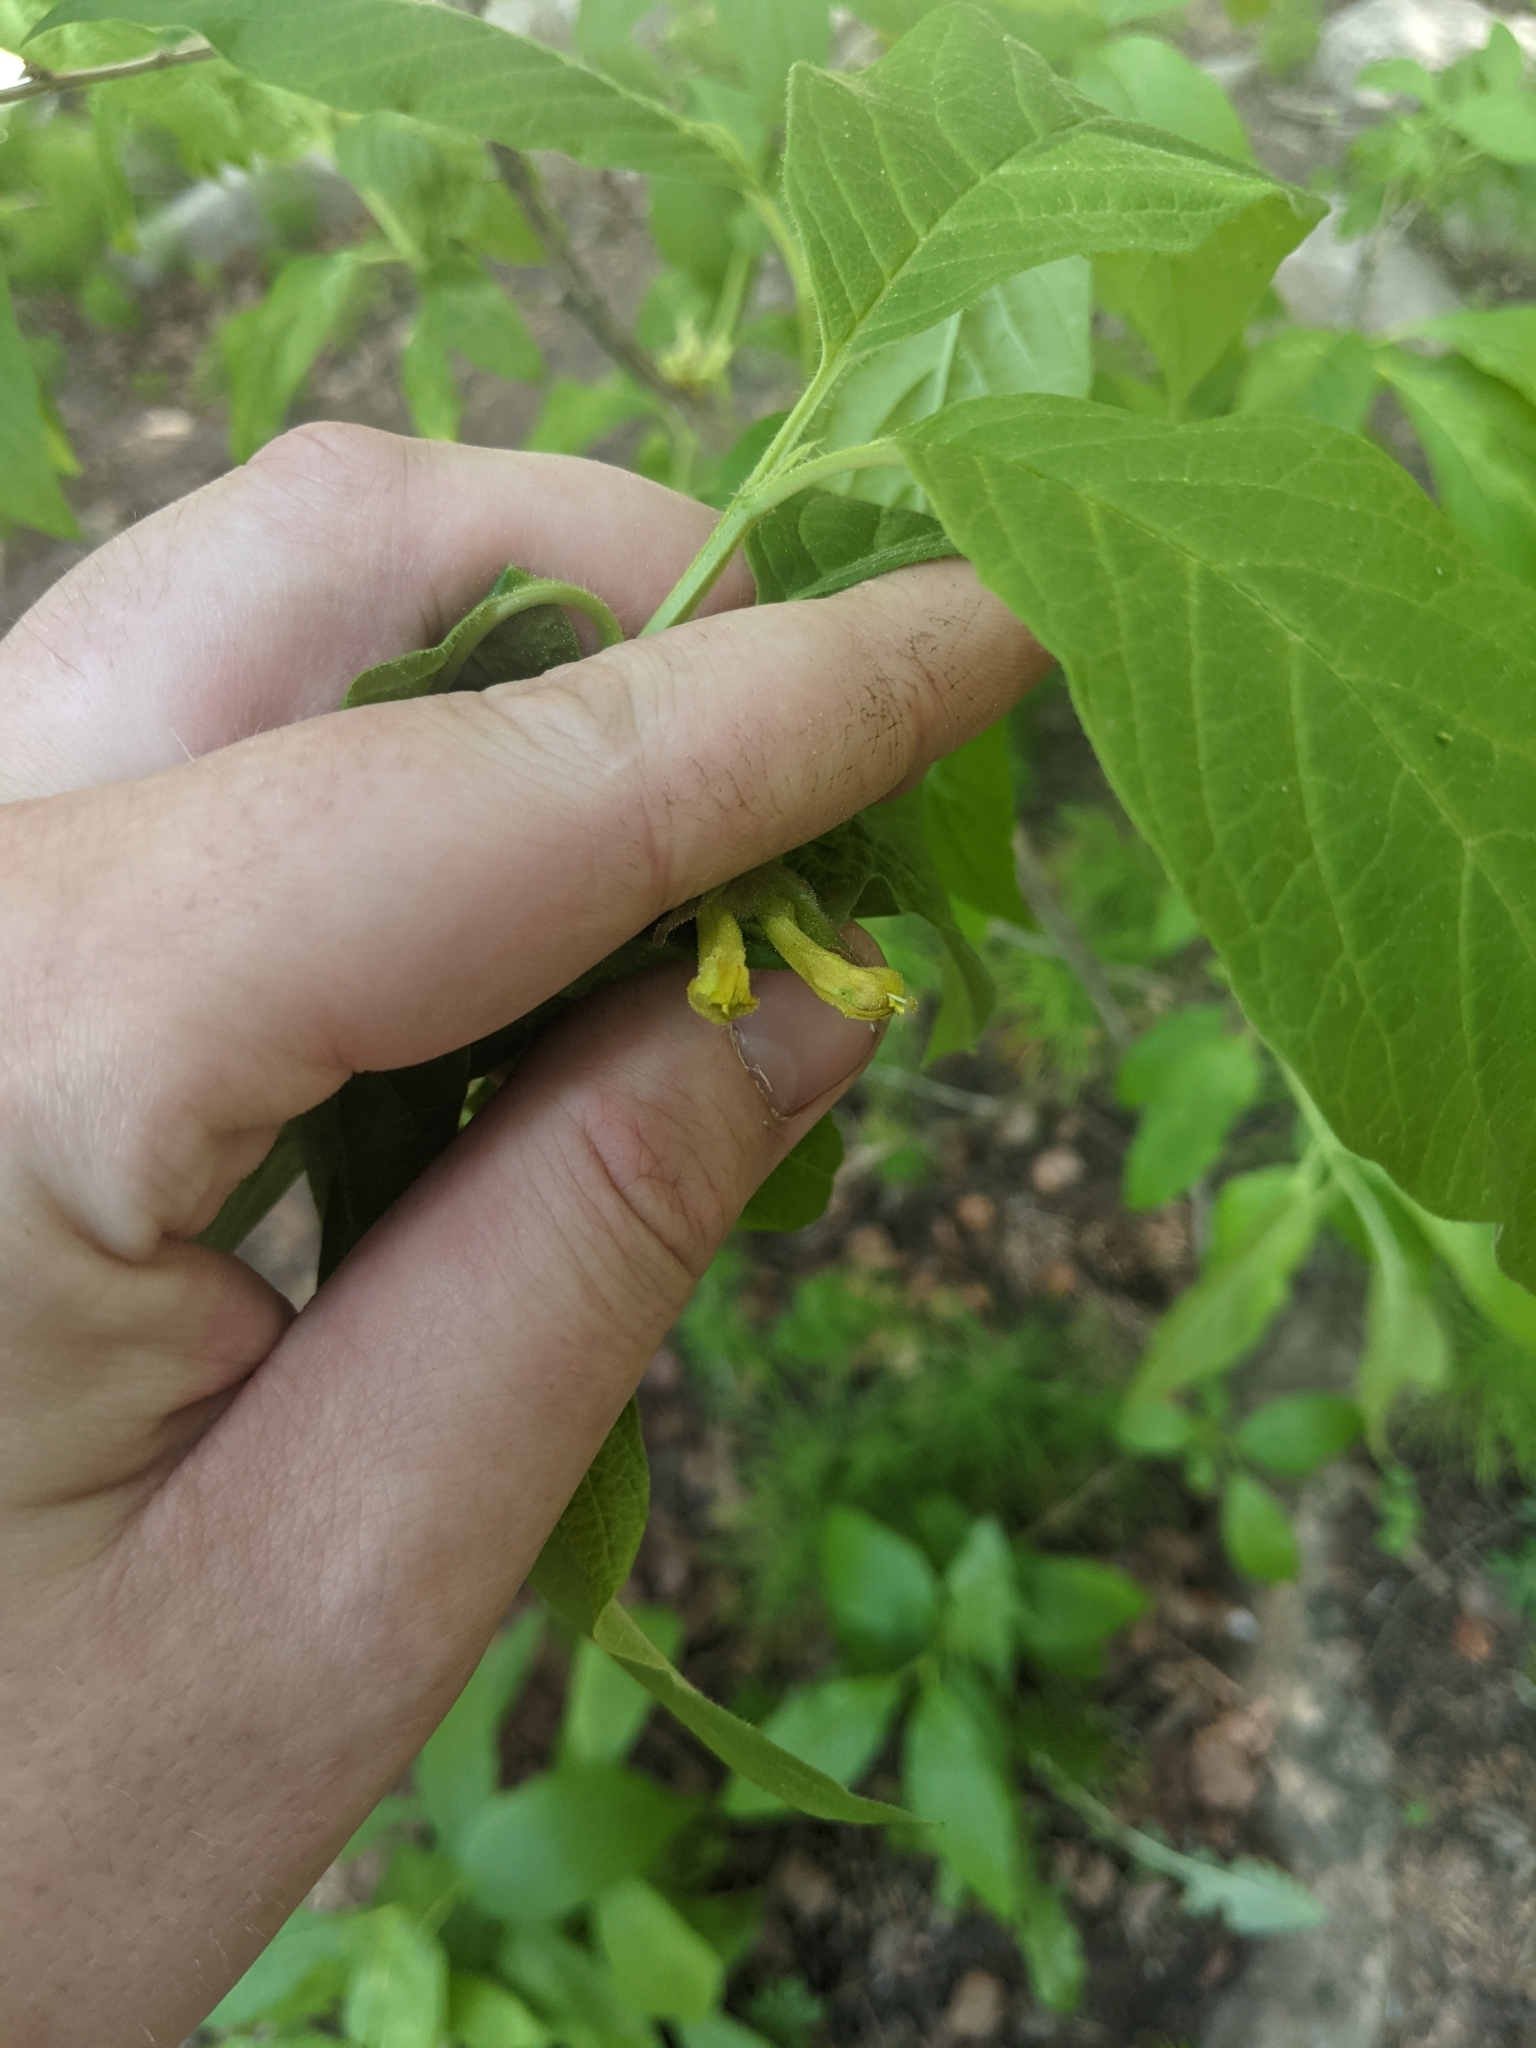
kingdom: Plantae
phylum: Tracheophyta
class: Magnoliopsida
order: Dipsacales
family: Caprifoliaceae
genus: Lonicera
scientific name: Lonicera involucrata
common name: Californian honeysuckle
